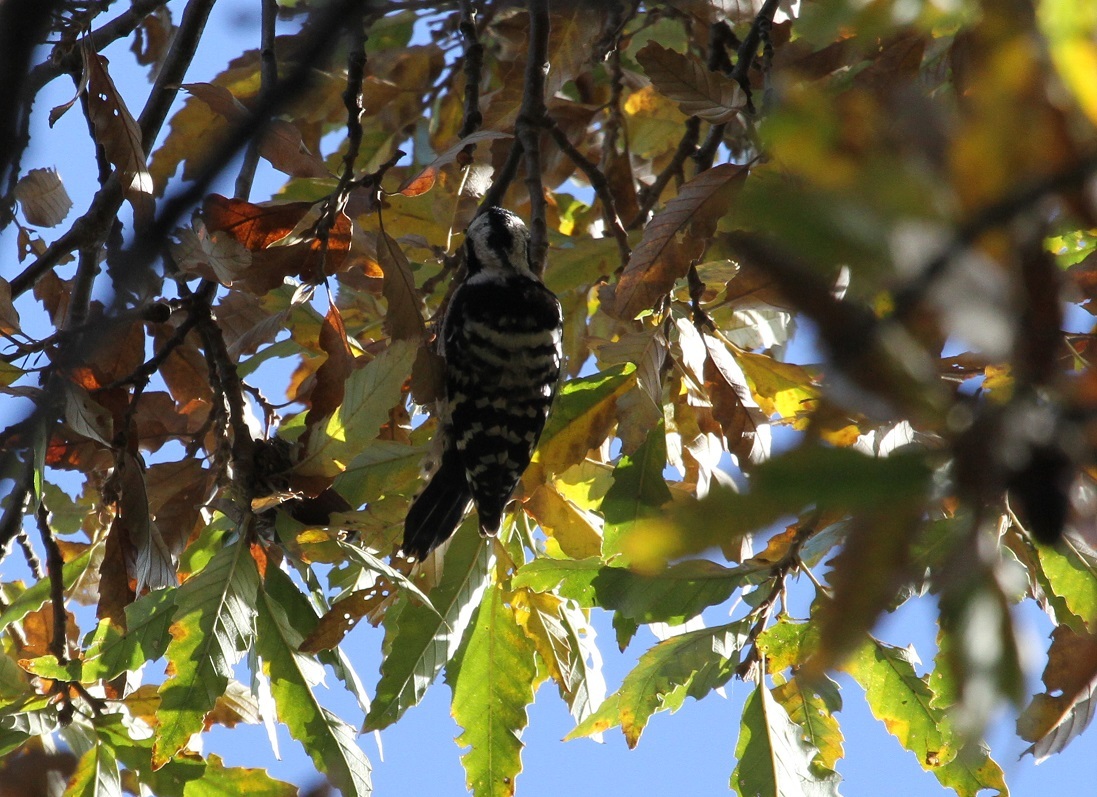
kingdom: Animalia
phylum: Chordata
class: Aves
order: Piciformes
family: Picidae
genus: Dryobates
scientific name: Dryobates minor
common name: Lesser spotted woodpecker
